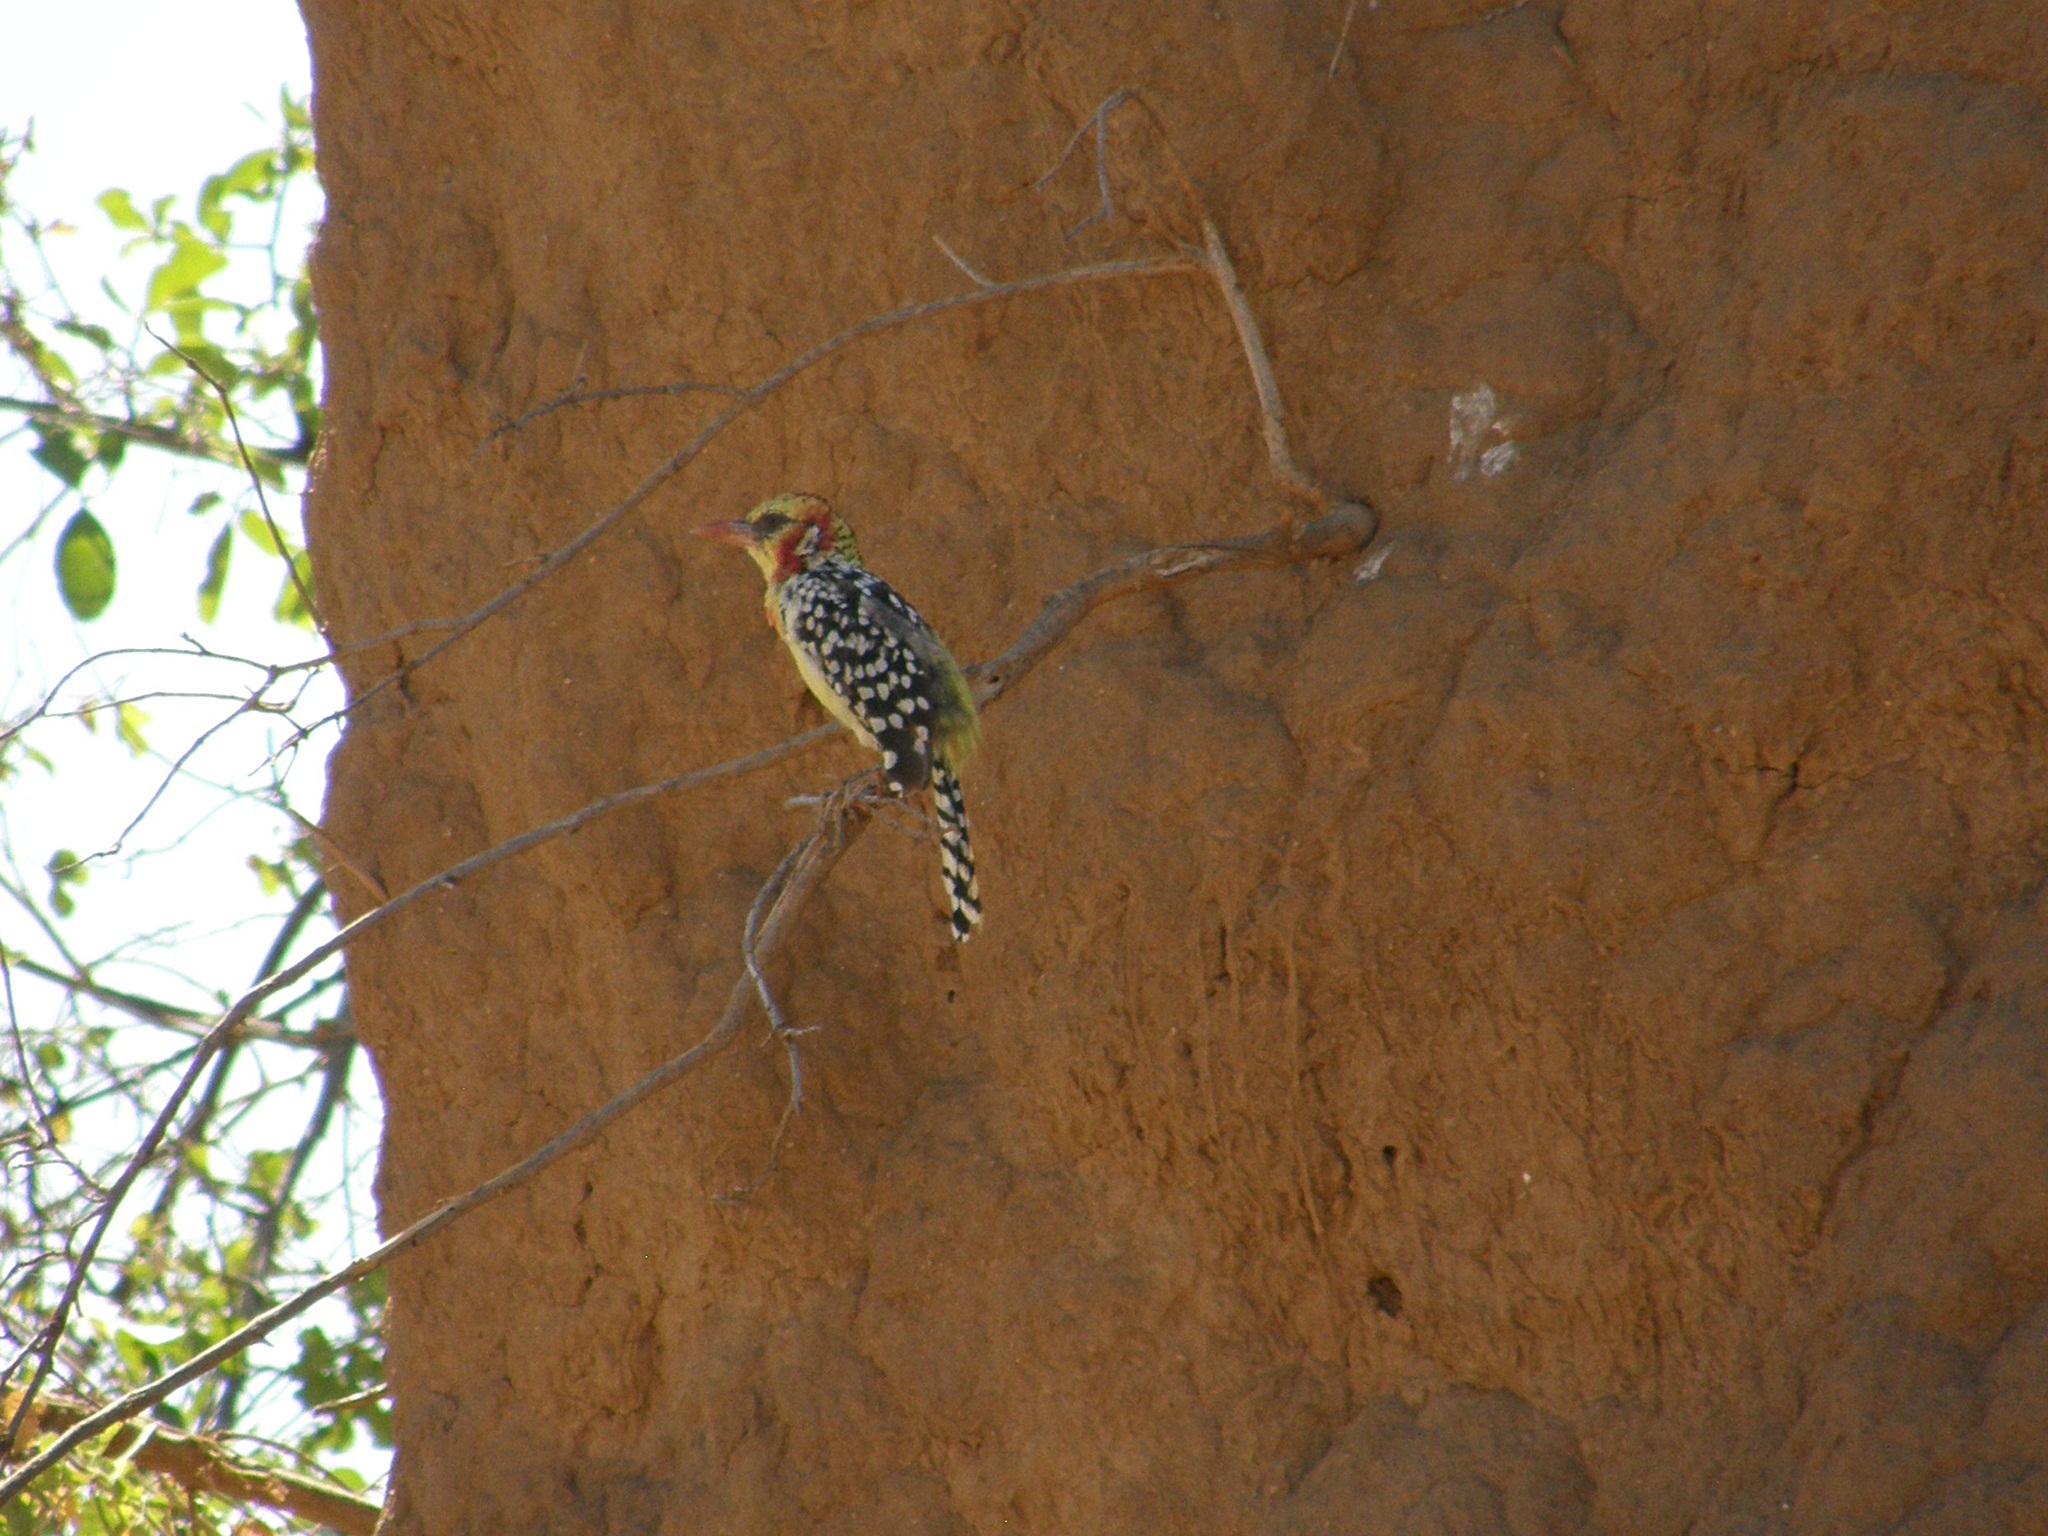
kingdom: Animalia
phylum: Chordata
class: Aves
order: Piciformes
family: Lybiidae
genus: Trachyphonus
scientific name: Trachyphonus erythrocephalus
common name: Red-and-yellow barbet
